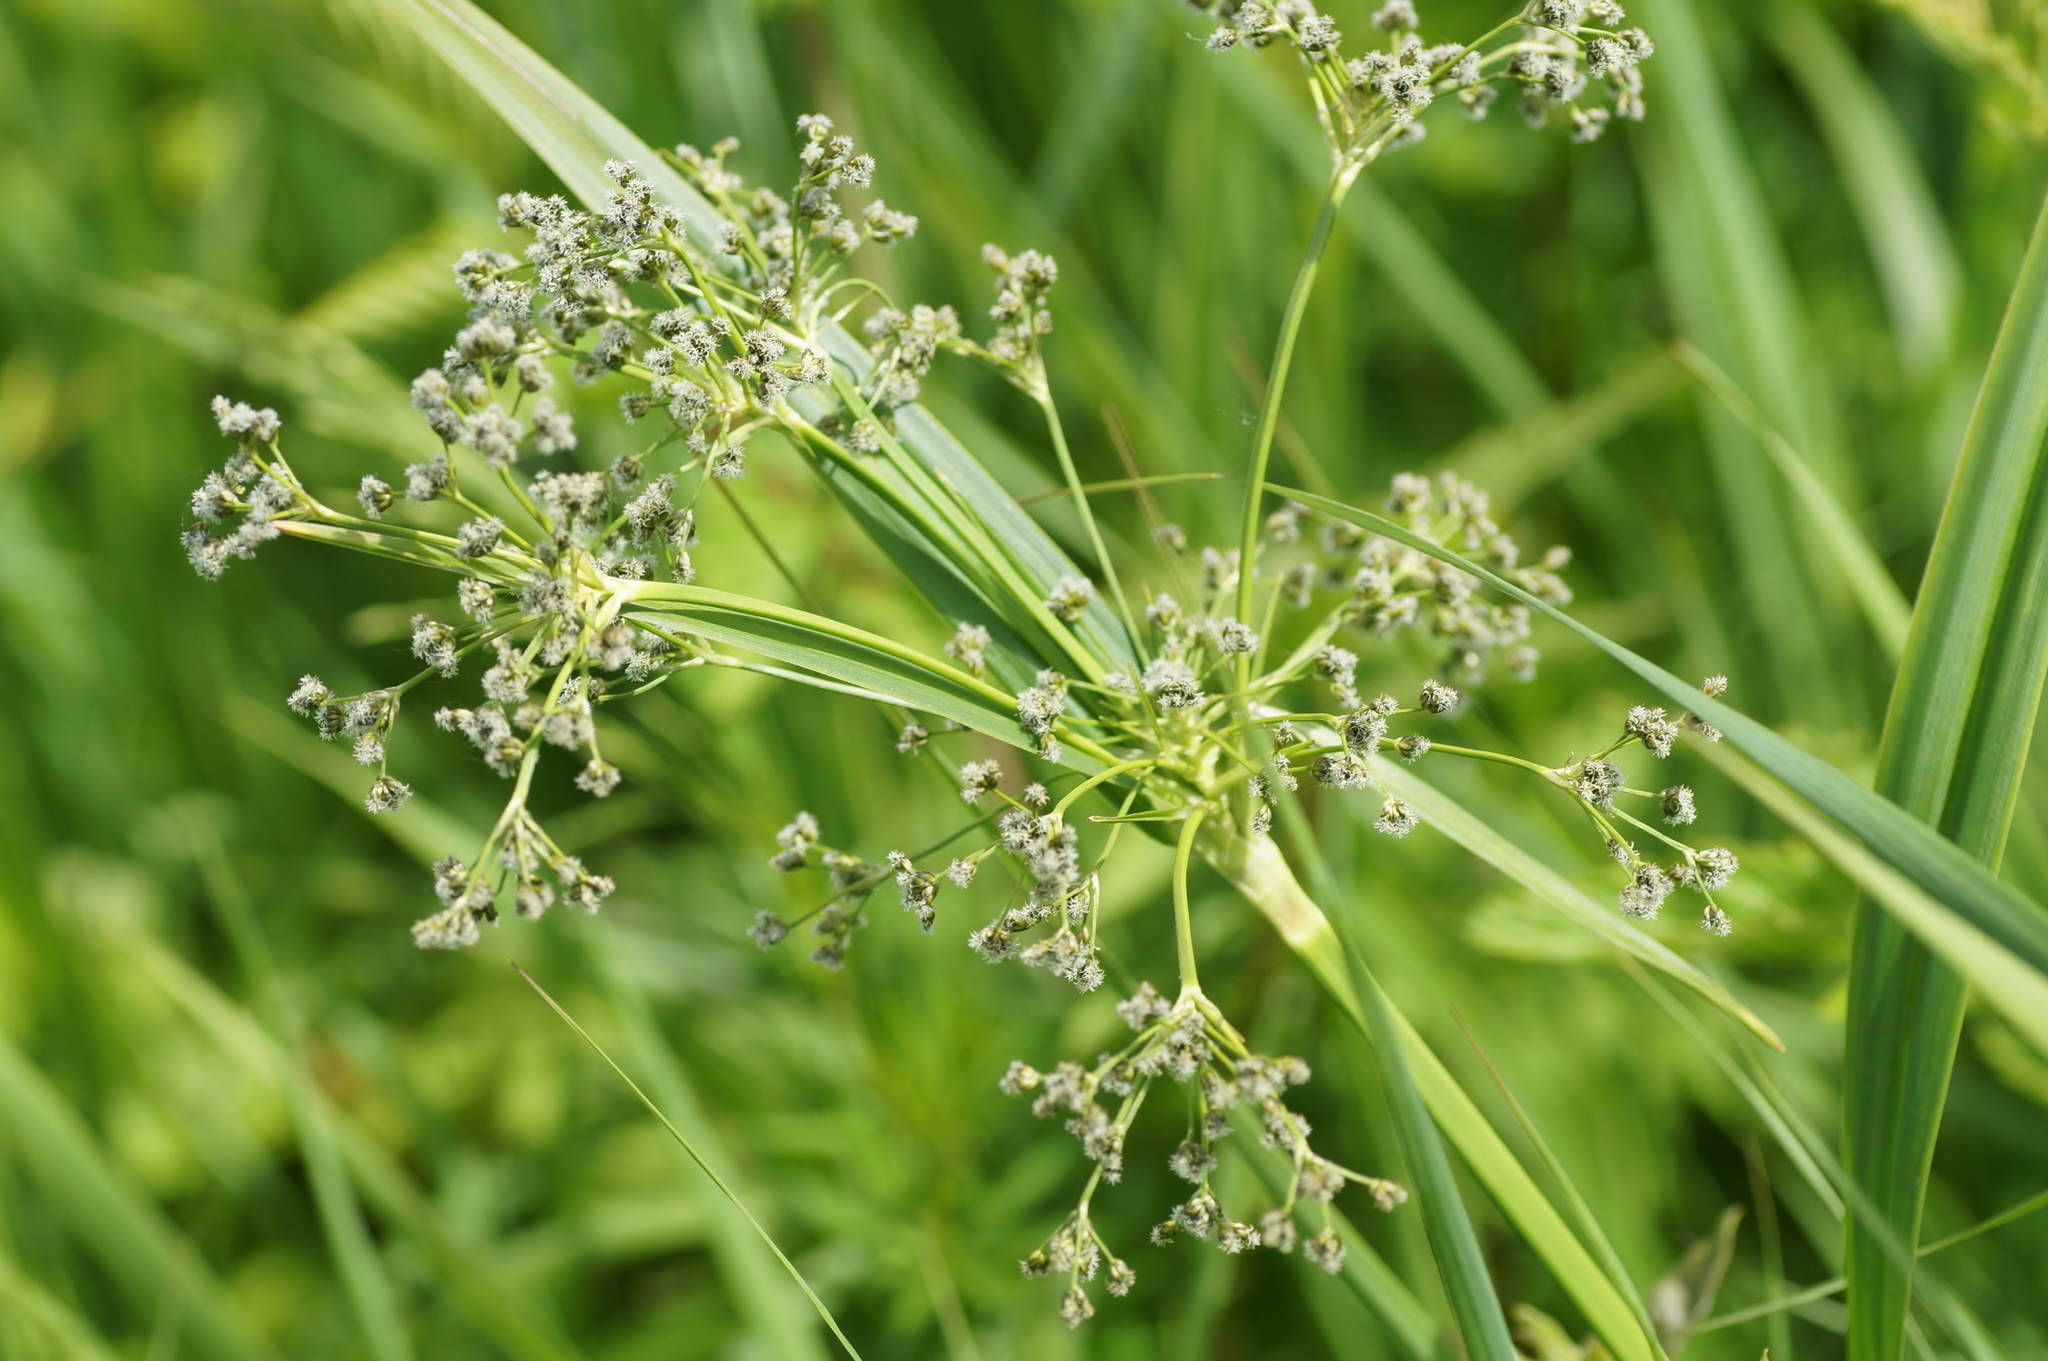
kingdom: Plantae
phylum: Tracheophyta
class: Liliopsida
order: Poales
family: Cyperaceae
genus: Scirpus
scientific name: Scirpus sylvaticus
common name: Wood club-rush
